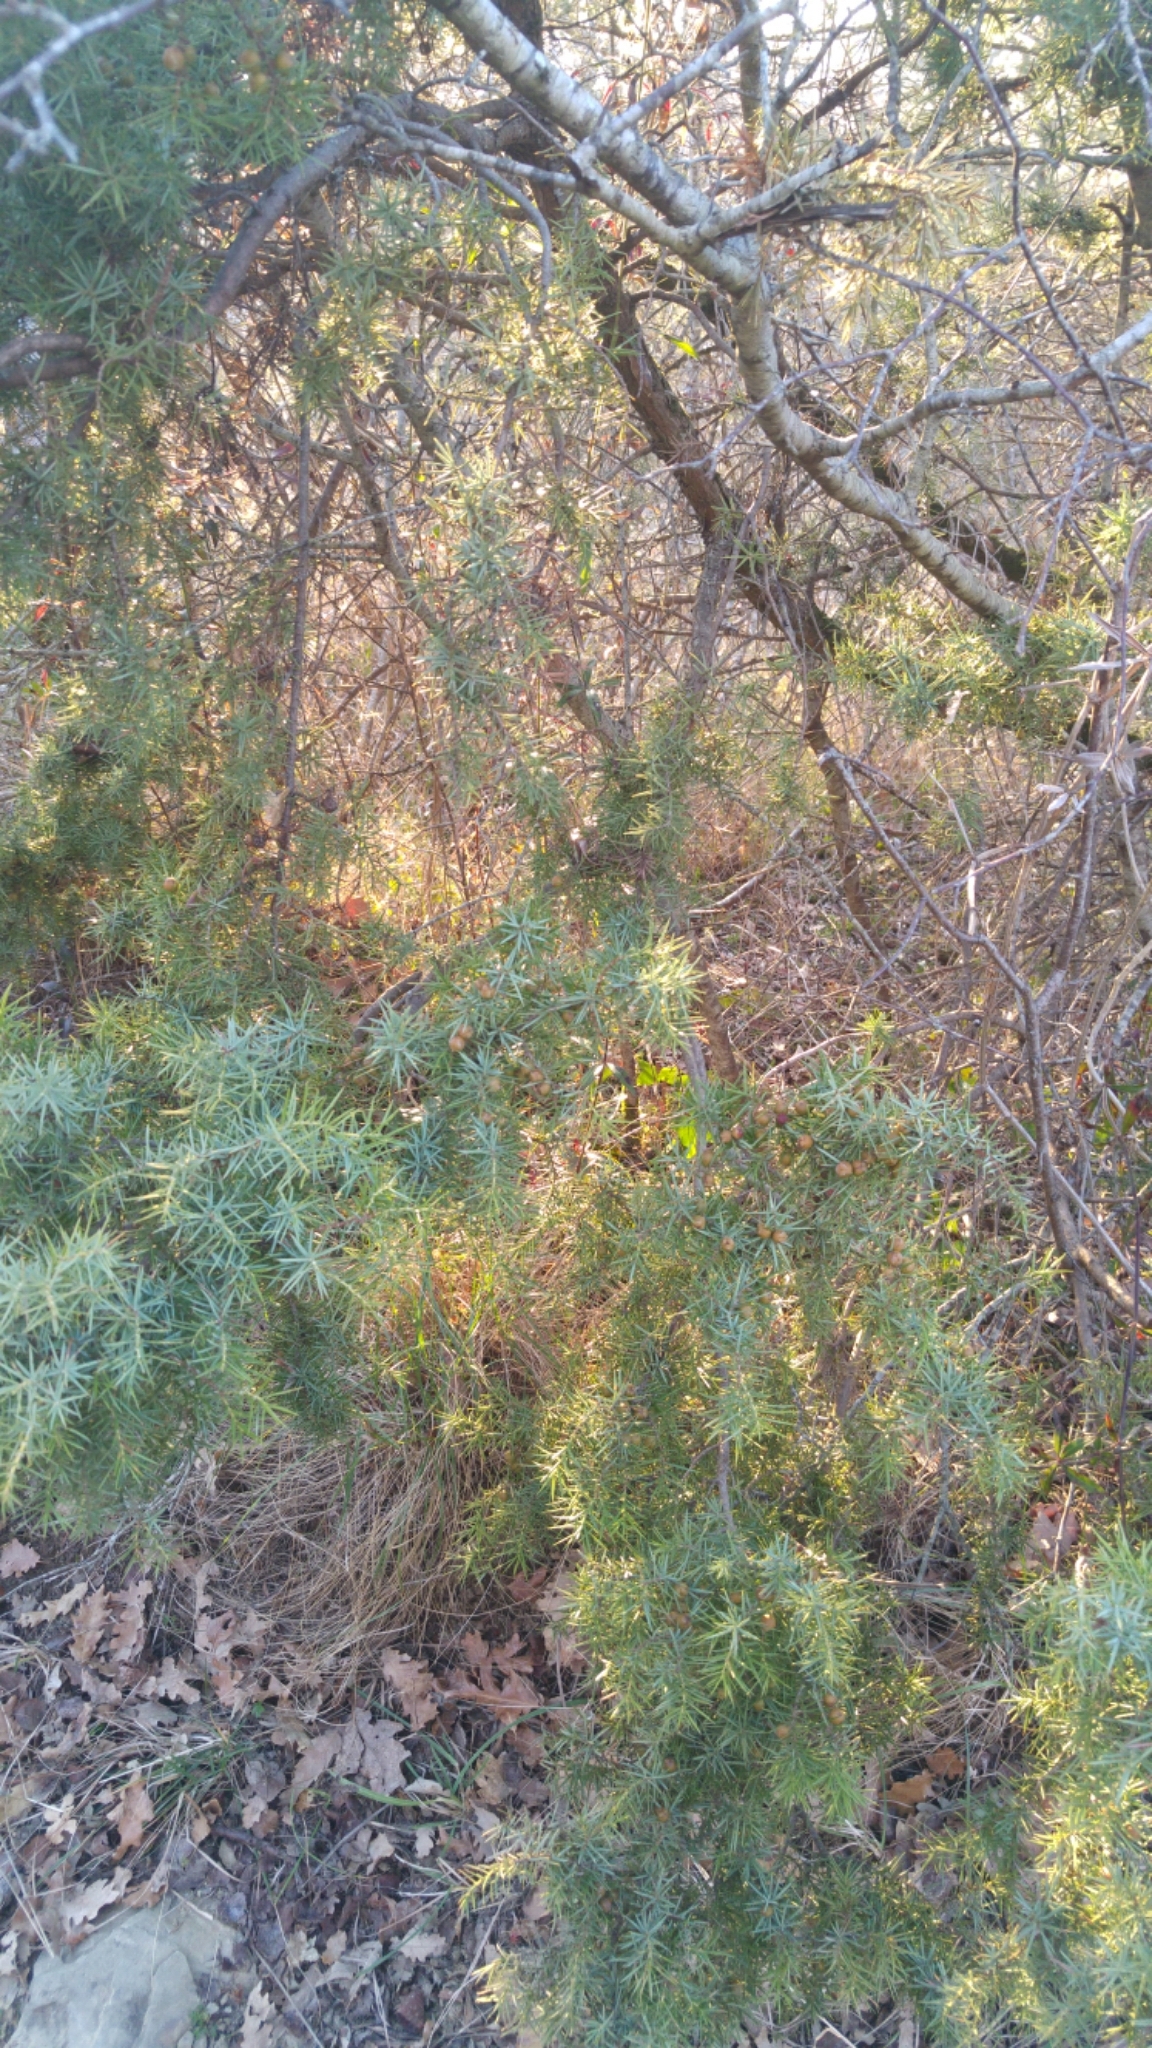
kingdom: Plantae
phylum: Tracheophyta
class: Pinopsida
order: Pinales
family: Cupressaceae
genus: Juniperus
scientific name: Juniperus oxycedrus
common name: Prickly juniper
